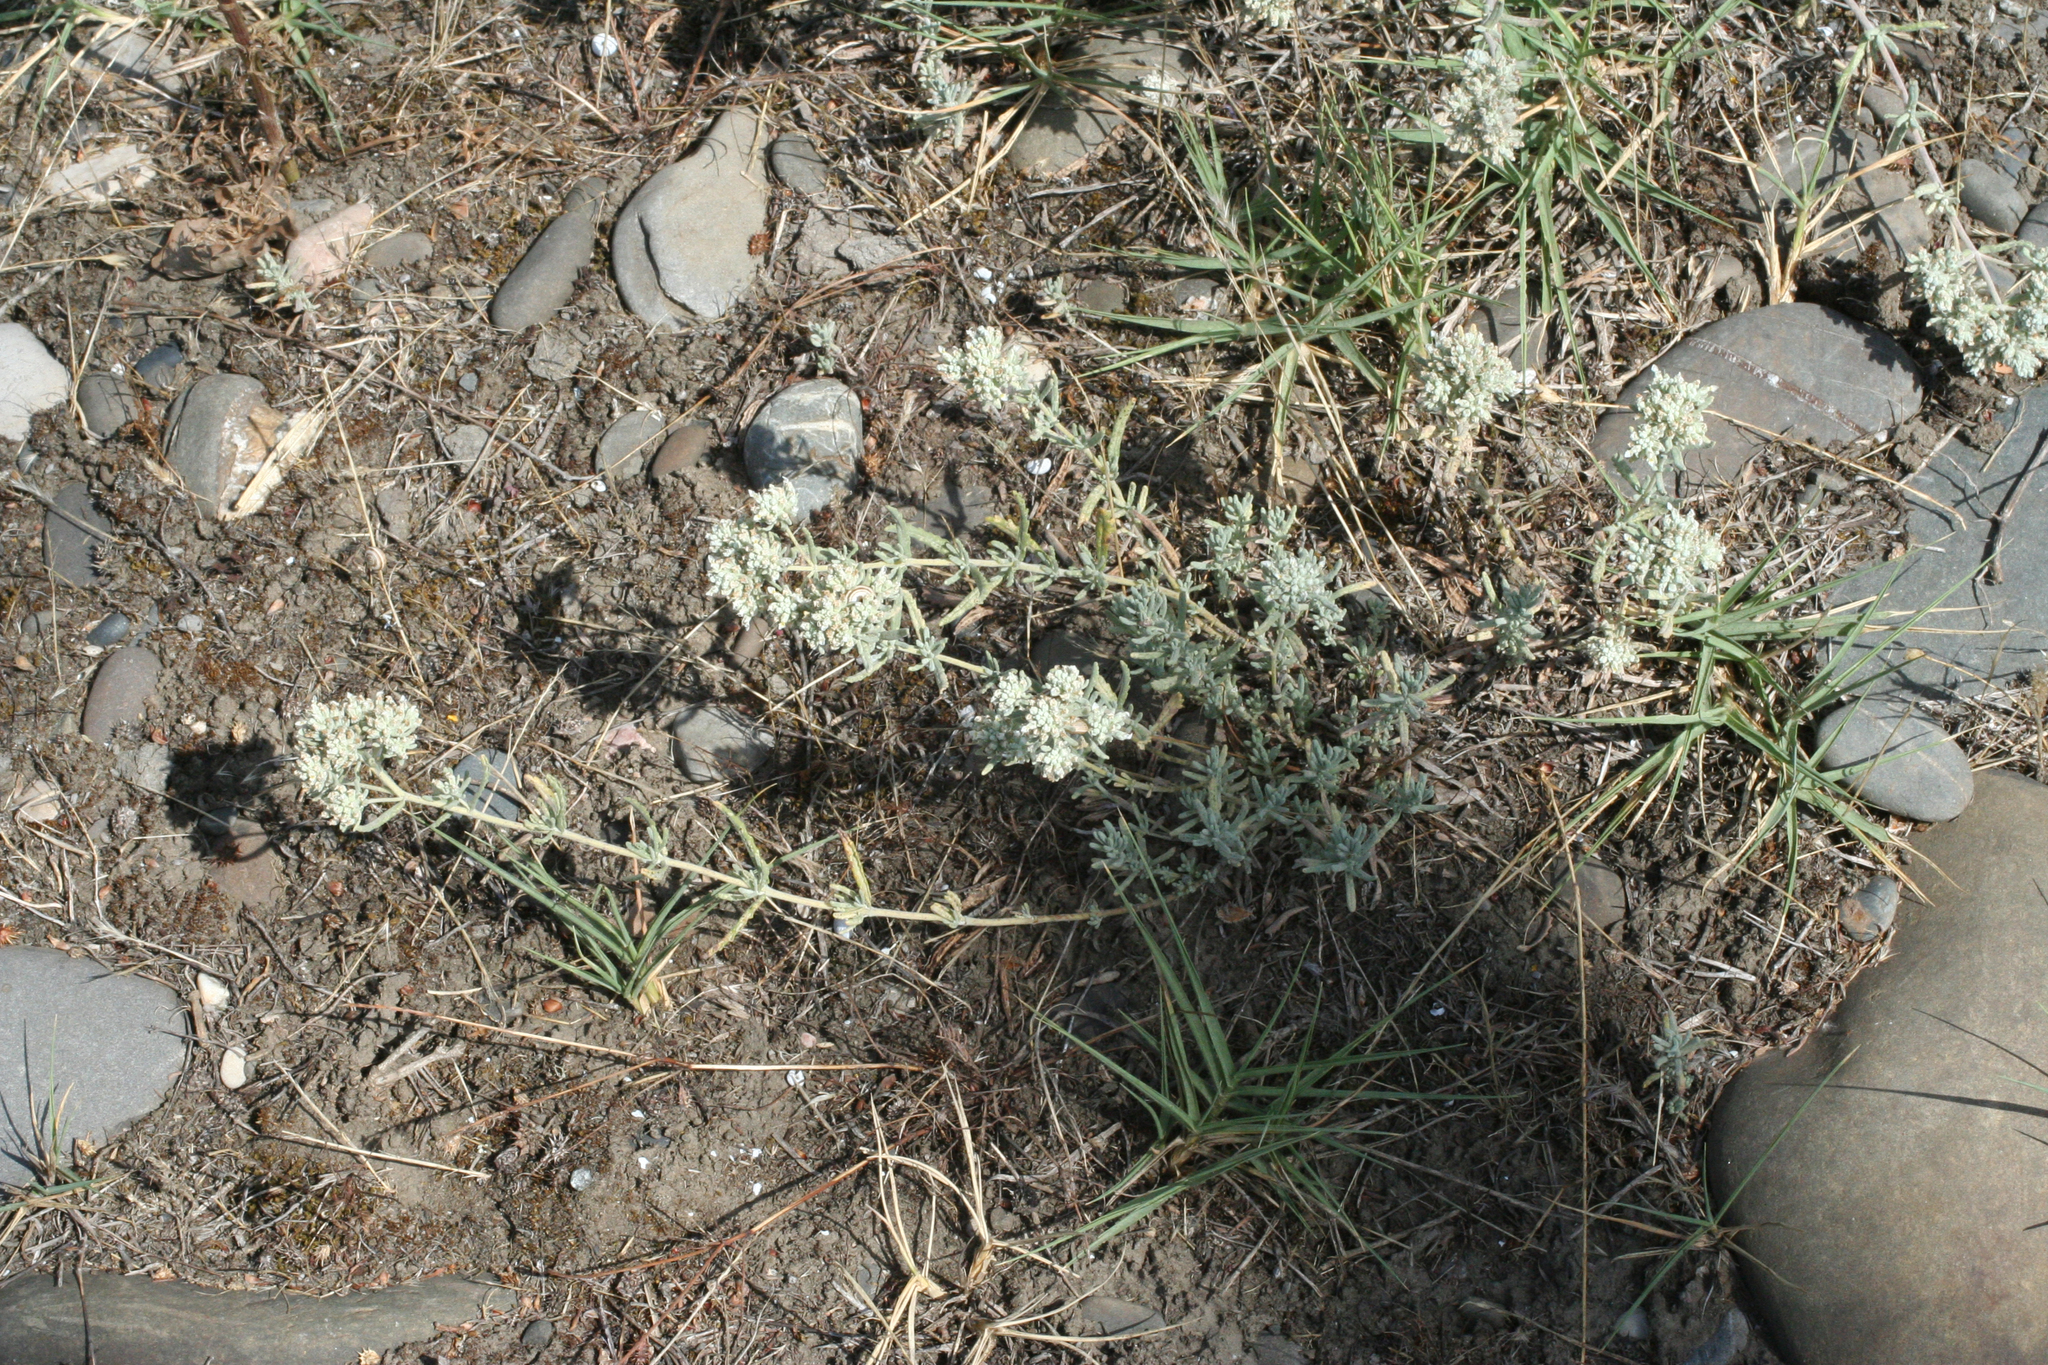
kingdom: Plantae
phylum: Tracheophyta
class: Magnoliopsida
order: Lamiales
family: Lamiaceae
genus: Teucrium
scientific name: Teucrium polium
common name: Poley
